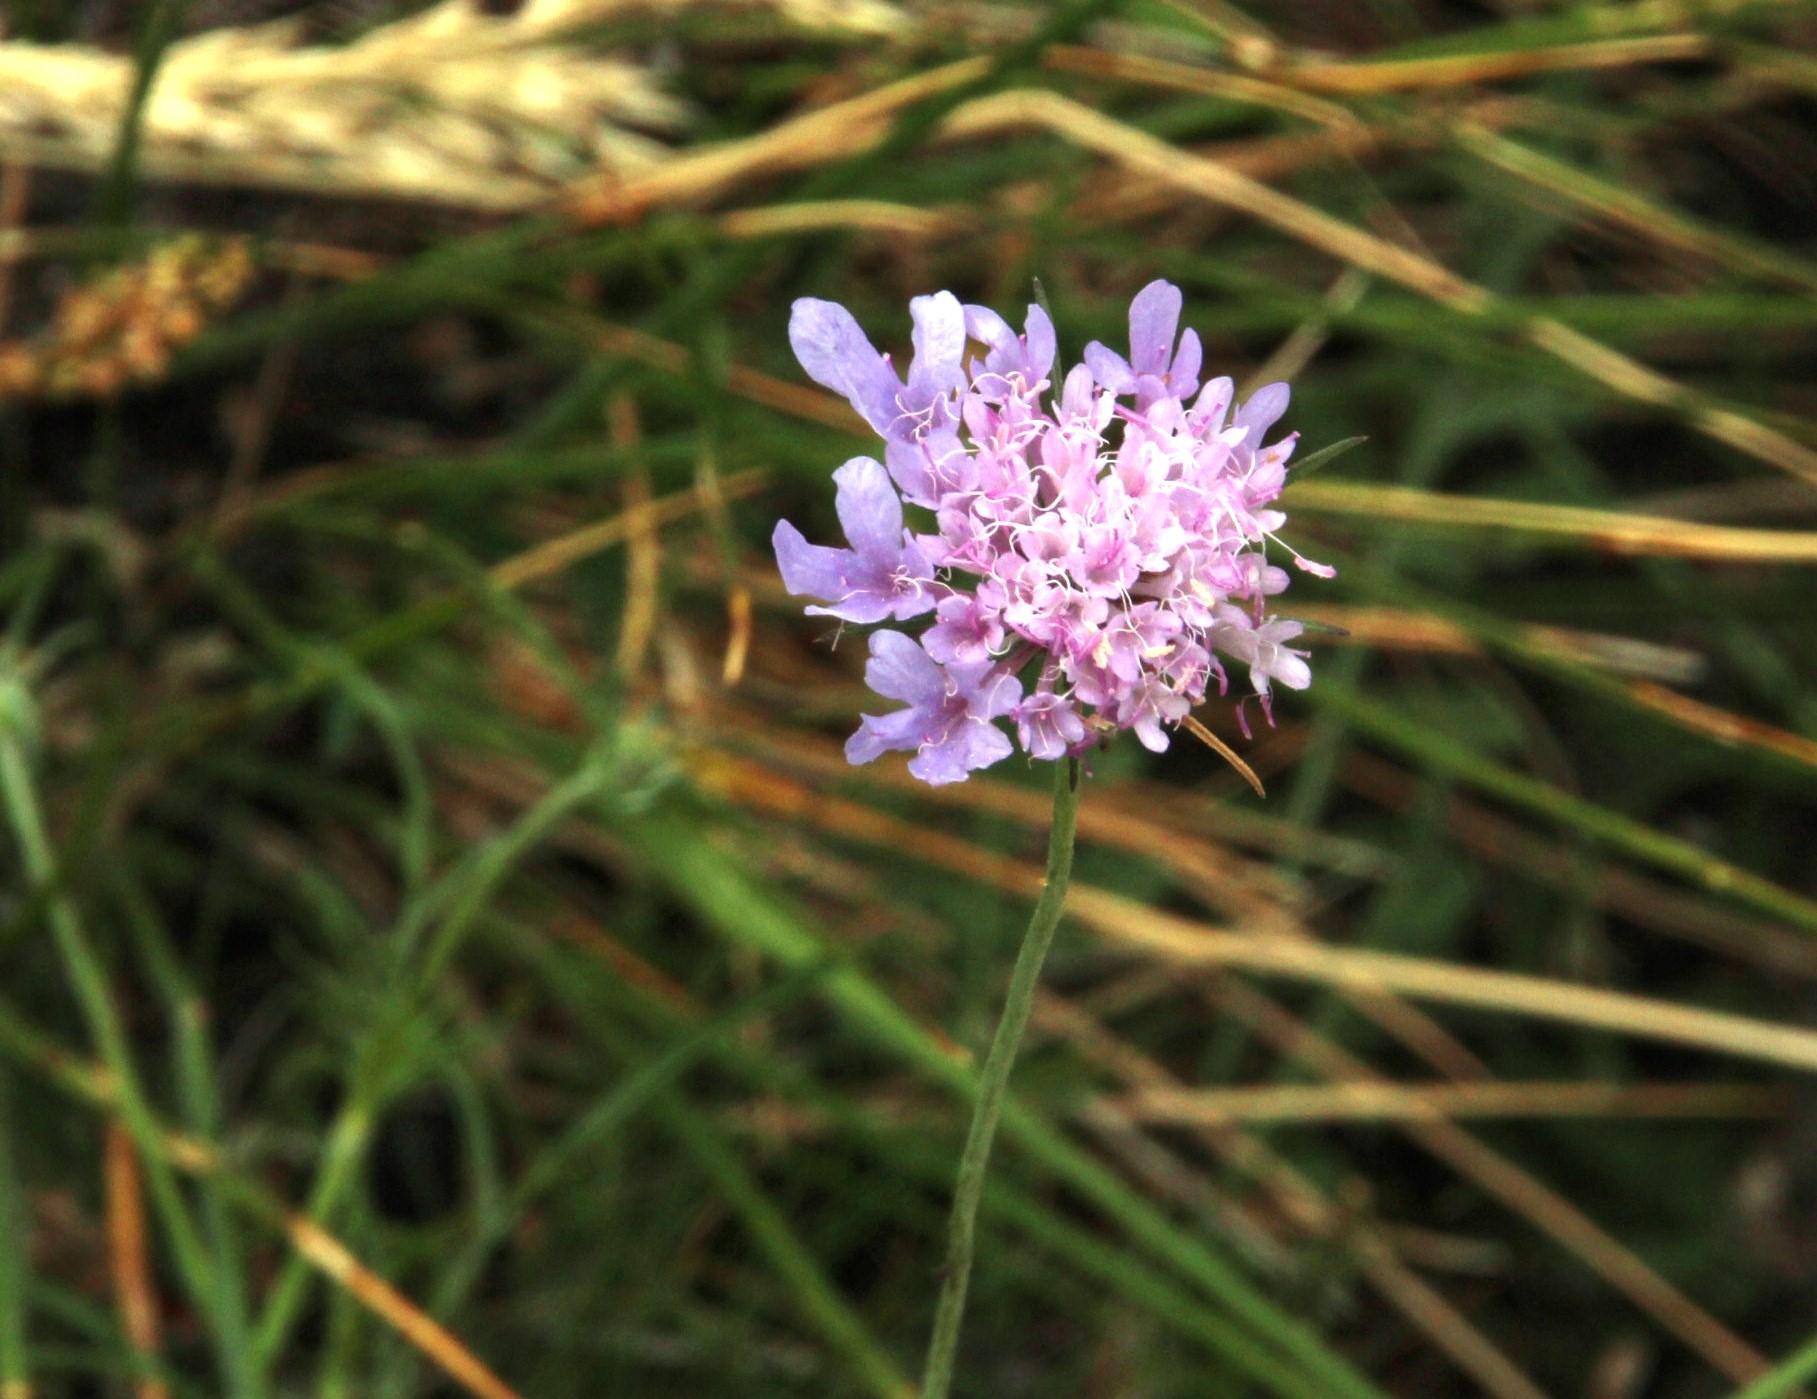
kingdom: Plantae
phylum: Tracheophyta
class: Magnoliopsida
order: Dipsacales
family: Caprifoliaceae
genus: Scabiosa
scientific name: Scabiosa columbaria
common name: Small scabious
